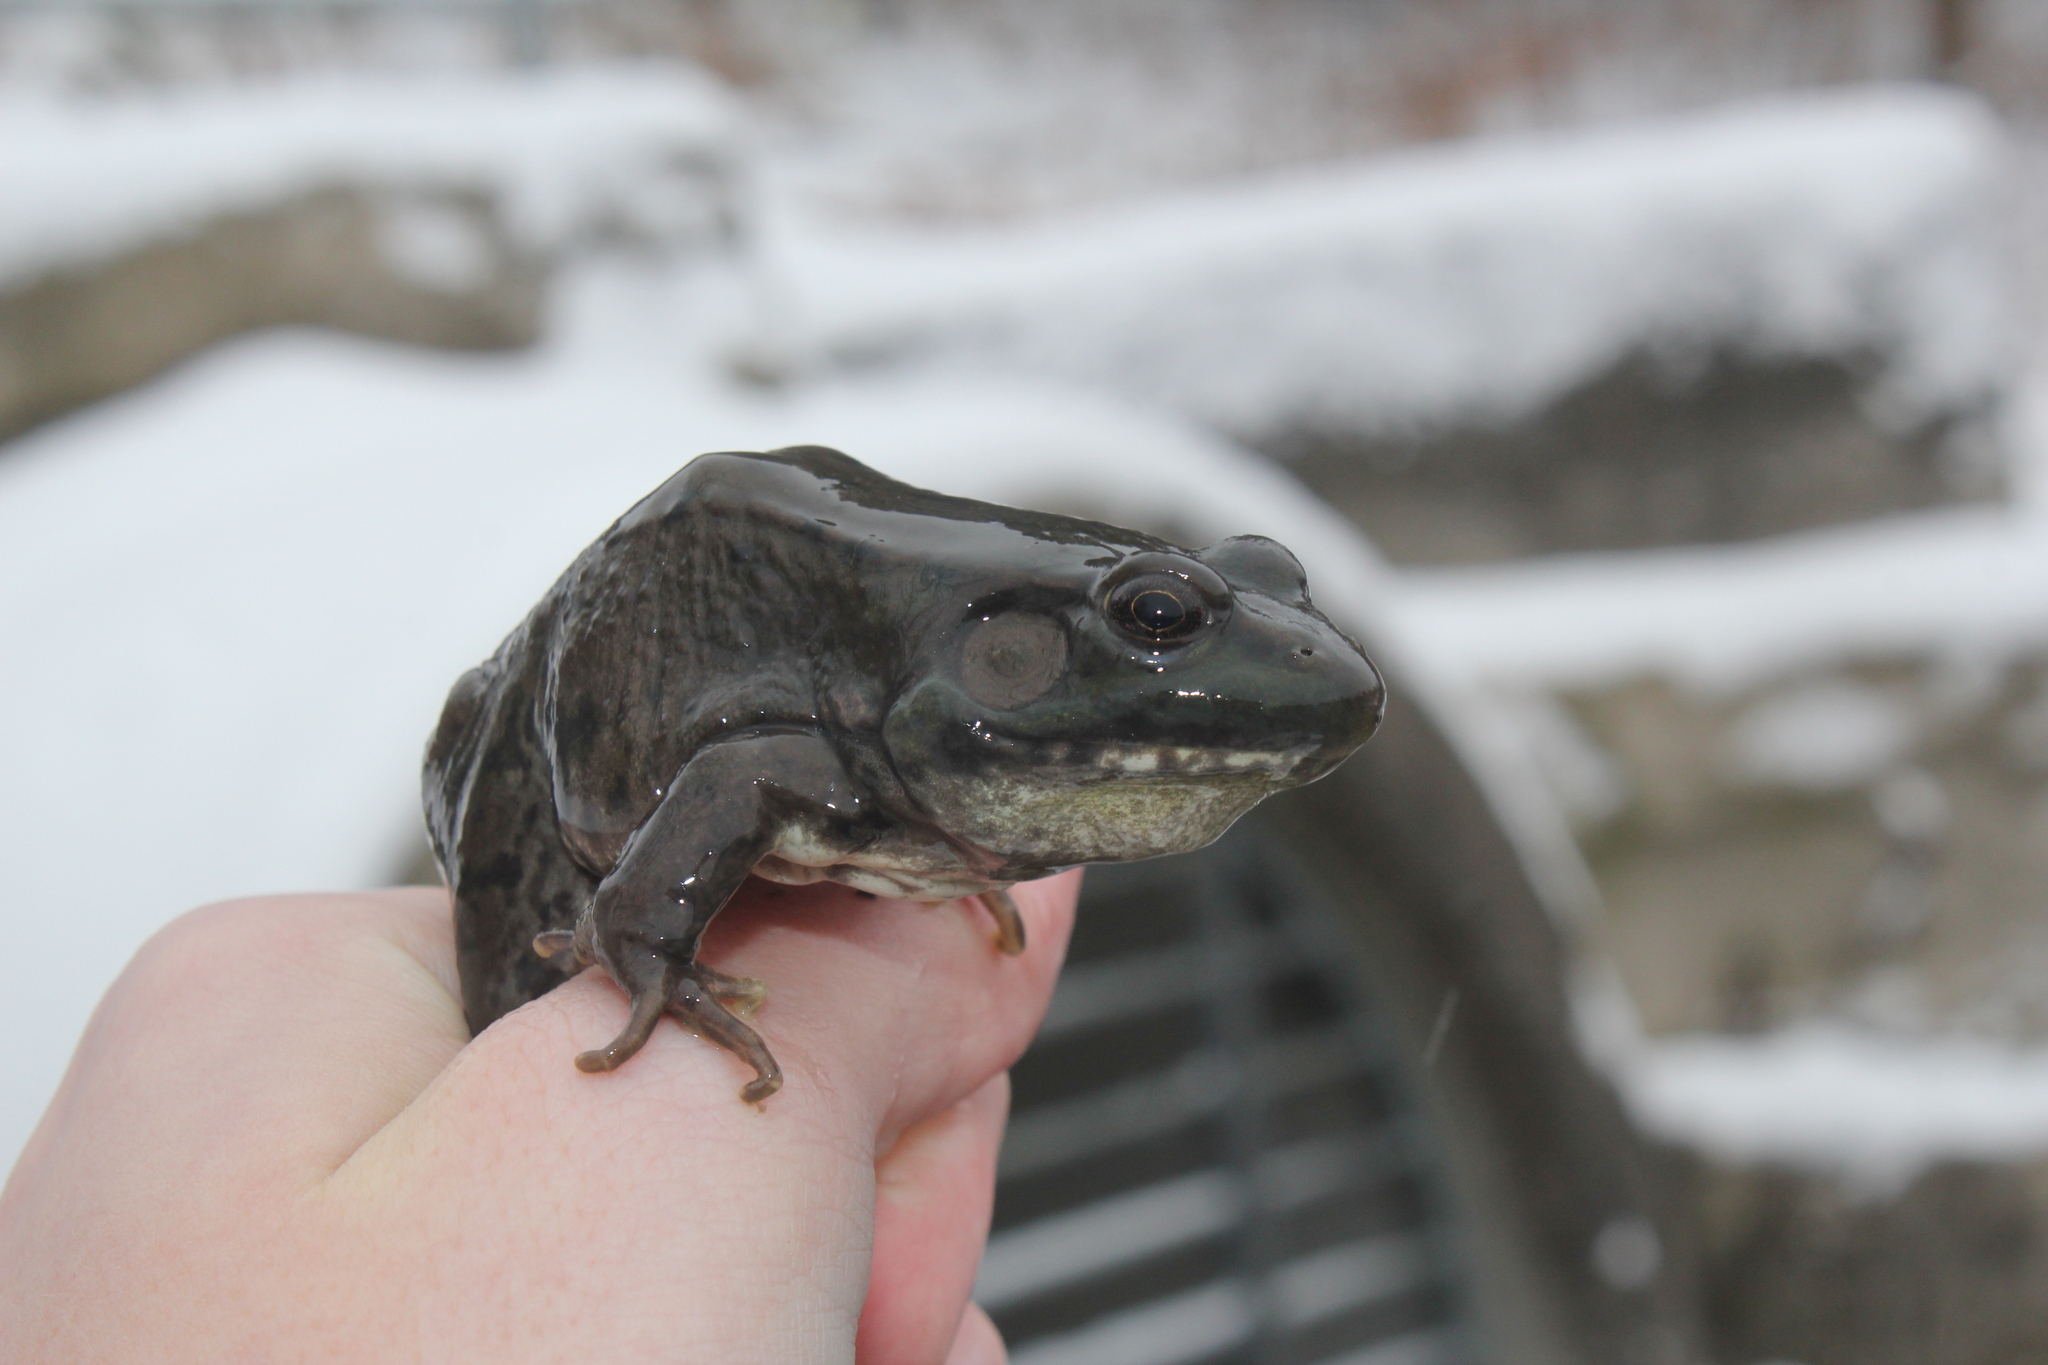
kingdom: Animalia
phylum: Chordata
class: Amphibia
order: Anura
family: Ranidae
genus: Lithobates
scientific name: Lithobates clamitans
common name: Green frog
